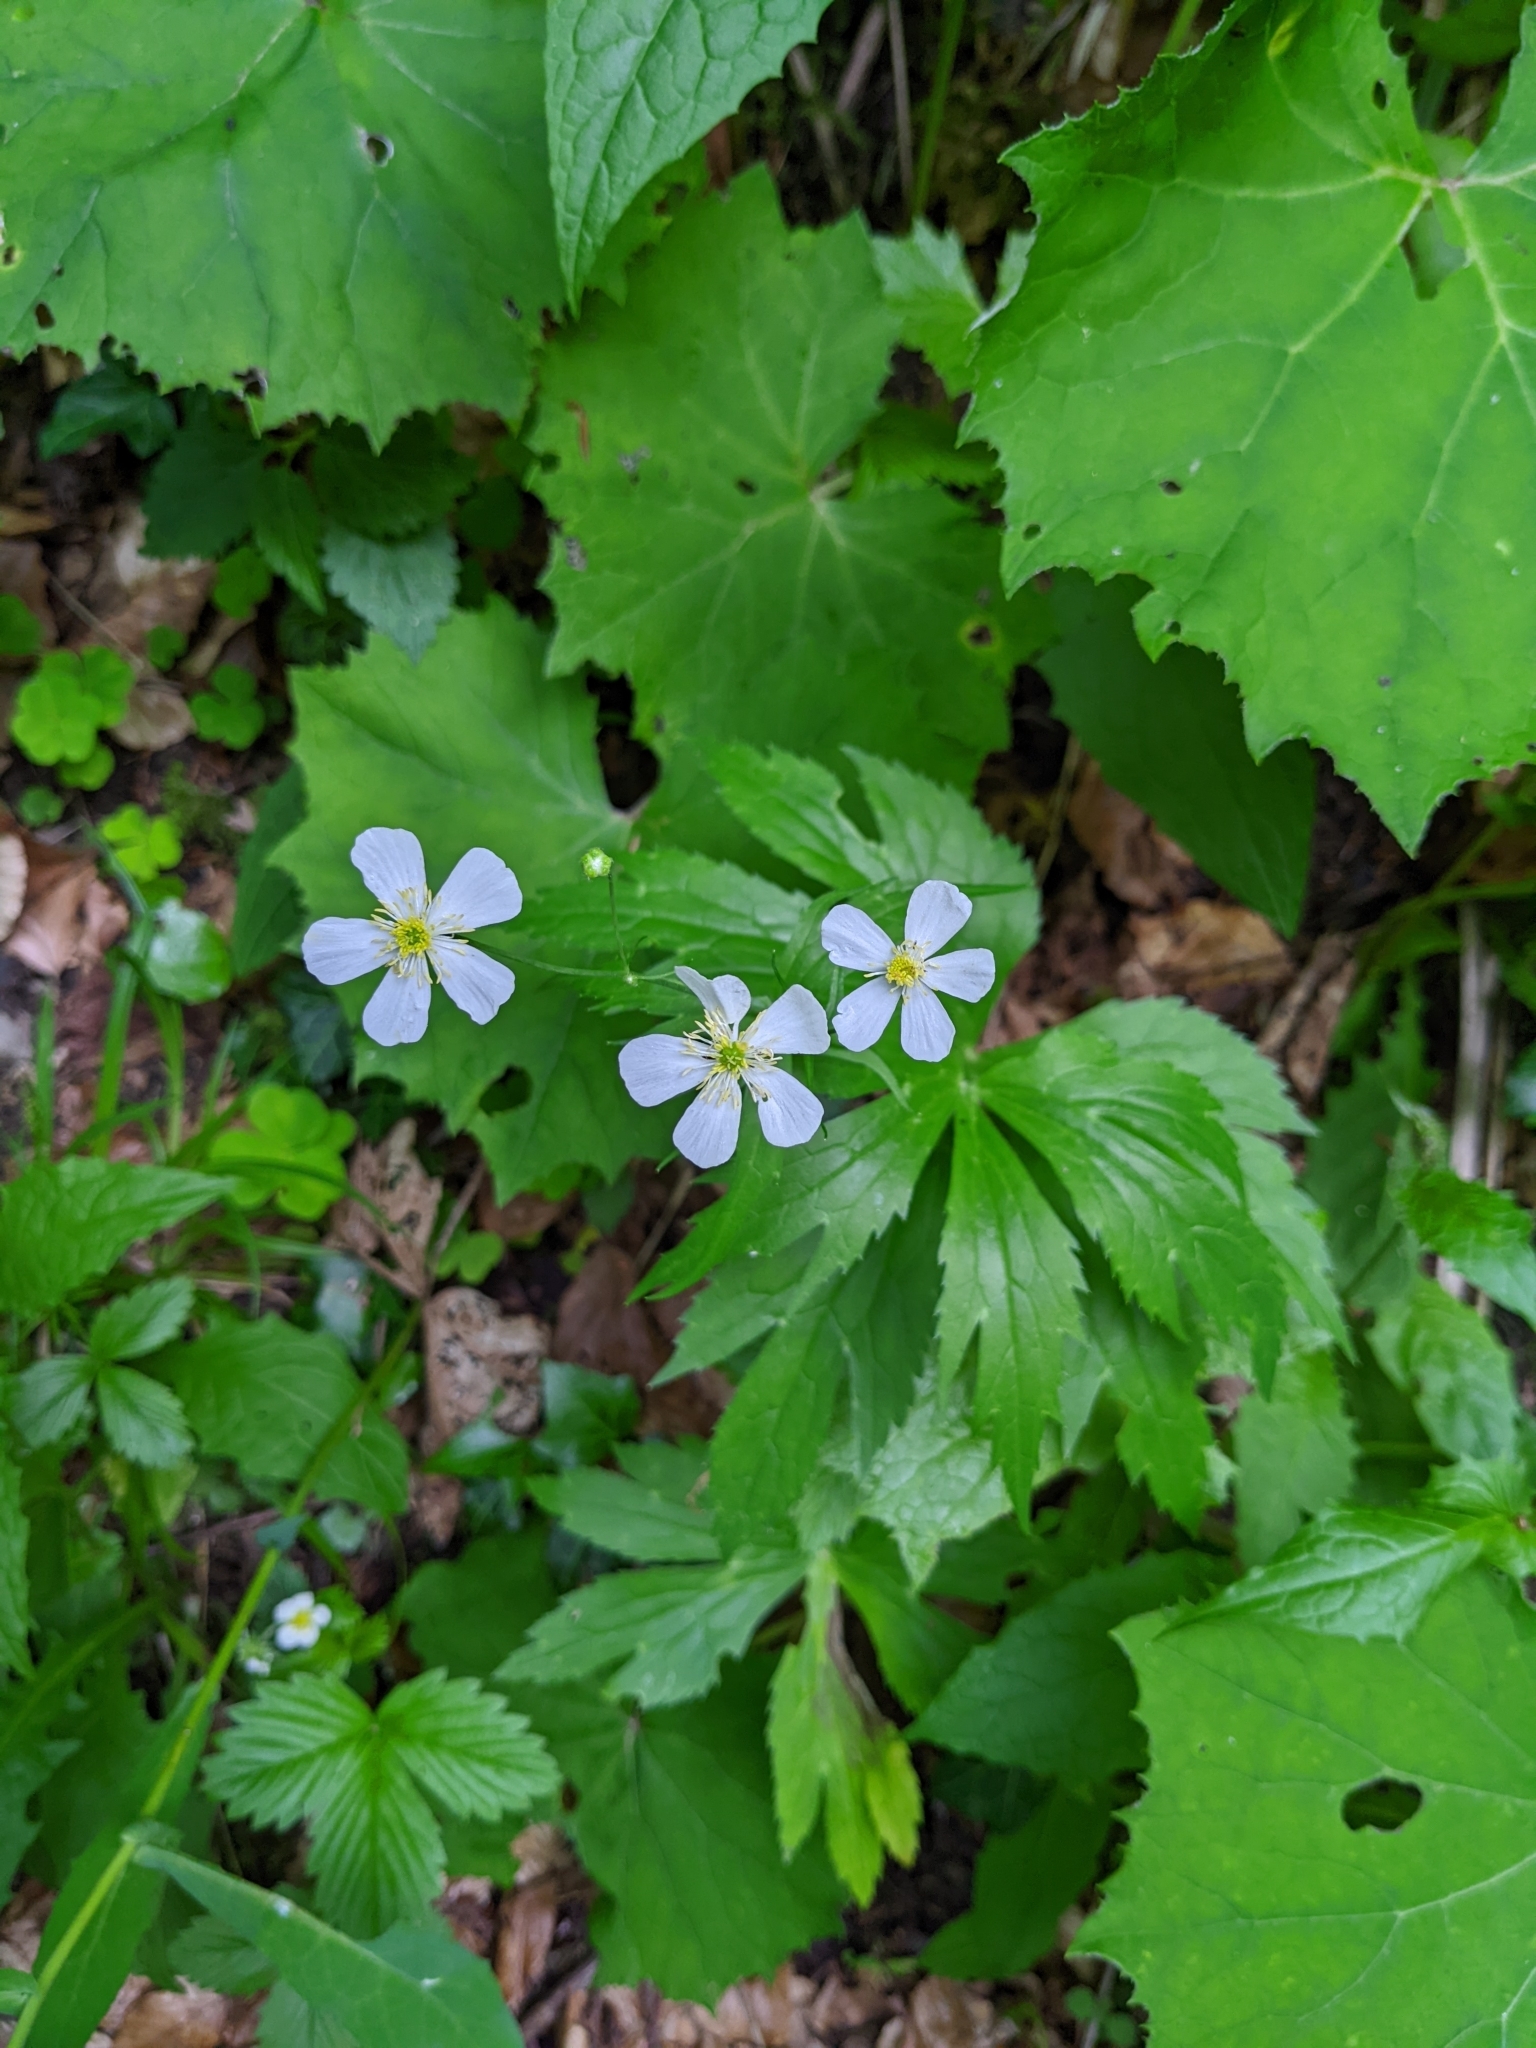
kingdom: Plantae
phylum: Tracheophyta
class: Magnoliopsida
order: Ranunculales
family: Ranunculaceae
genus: Ranunculus
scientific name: Ranunculus aconitifolius
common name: Aconite-leaved buttercup
